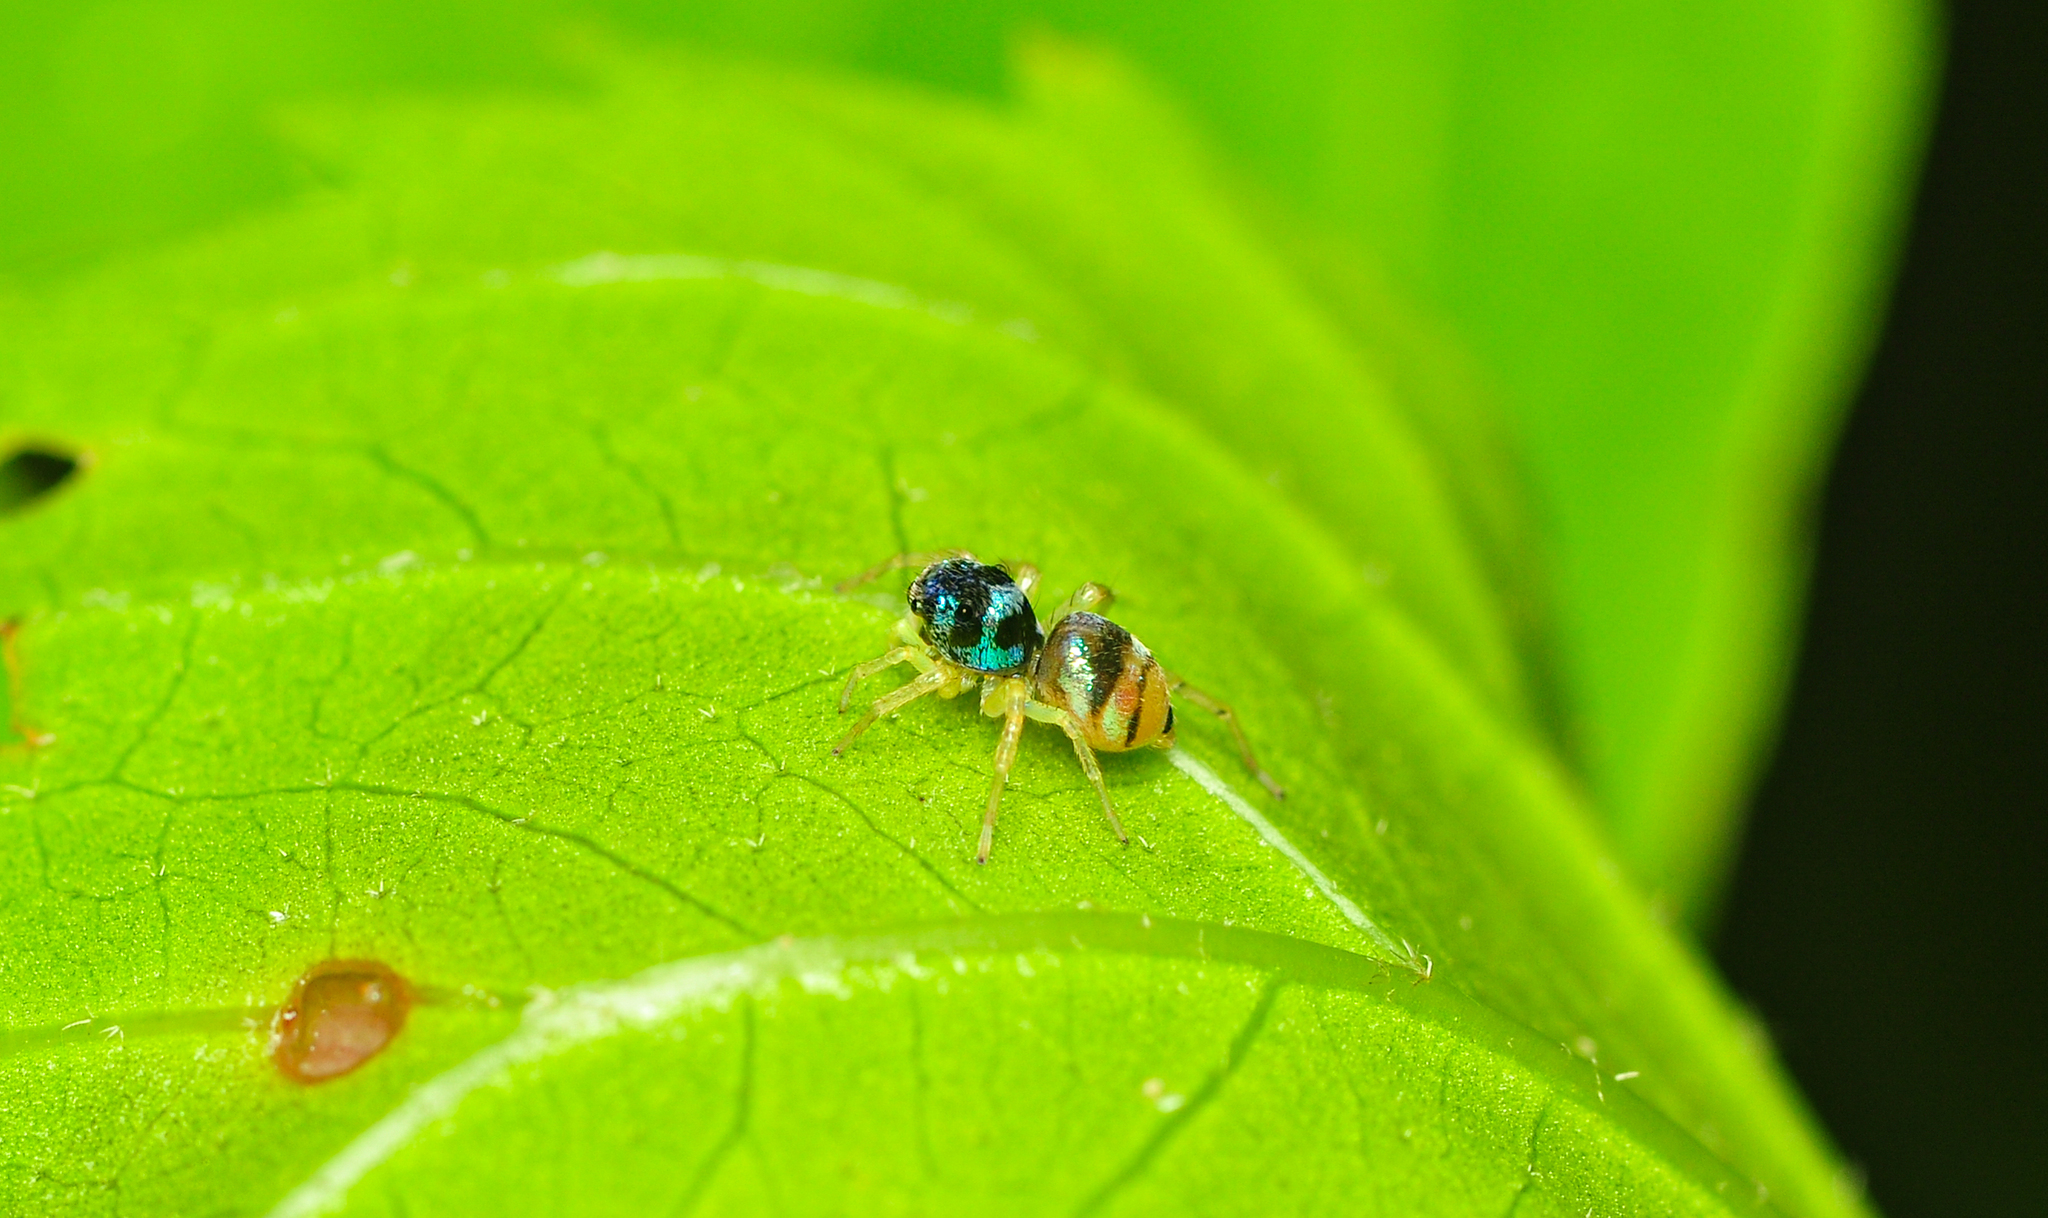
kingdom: Animalia
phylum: Arthropoda
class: Arachnida
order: Araneae
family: Salticidae
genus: Phintella
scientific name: Phintella vittata
